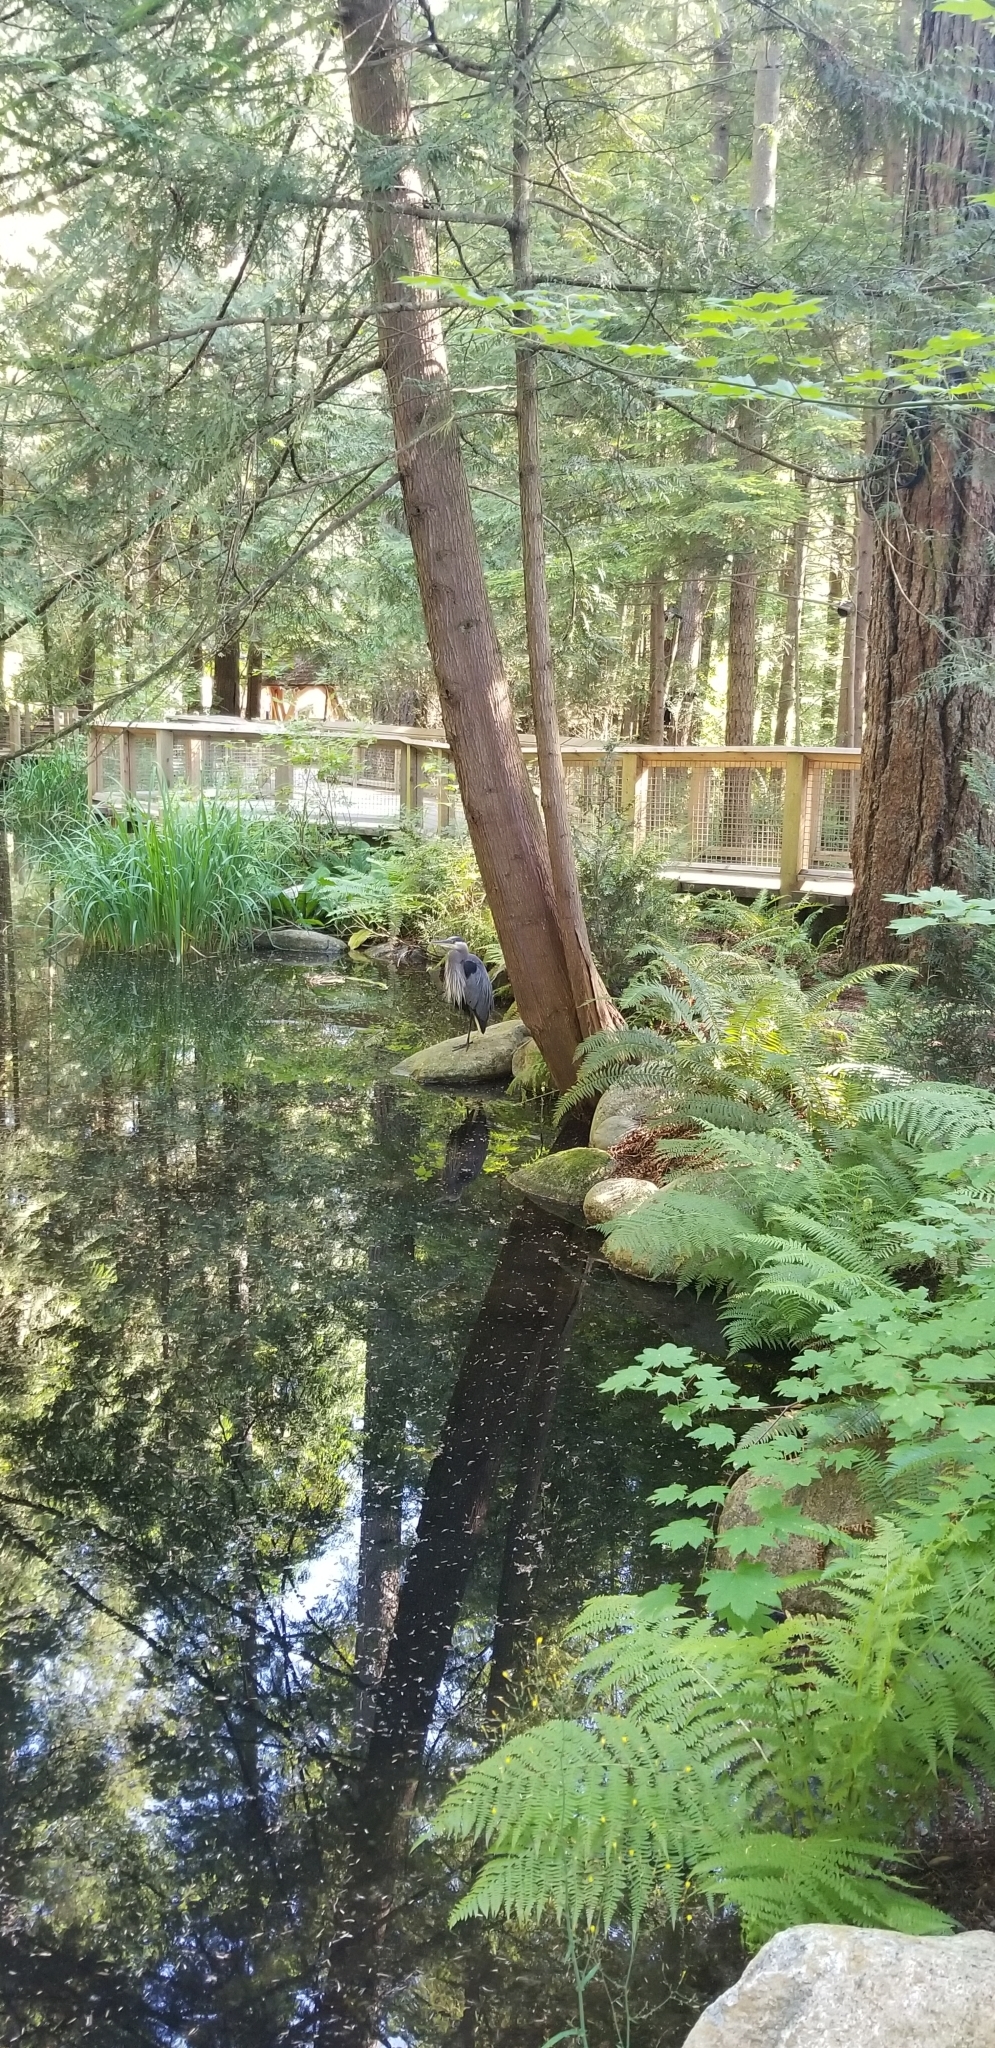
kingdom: Animalia
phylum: Chordata
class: Aves
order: Pelecaniformes
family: Ardeidae
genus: Ardea
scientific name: Ardea herodias
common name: Great blue heron
